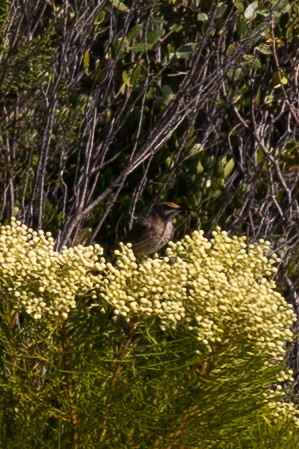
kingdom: Animalia
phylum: Chordata
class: Aves
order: Passeriformes
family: Promeropidae
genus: Promerops
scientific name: Promerops cafer
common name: Cape sugarbird
